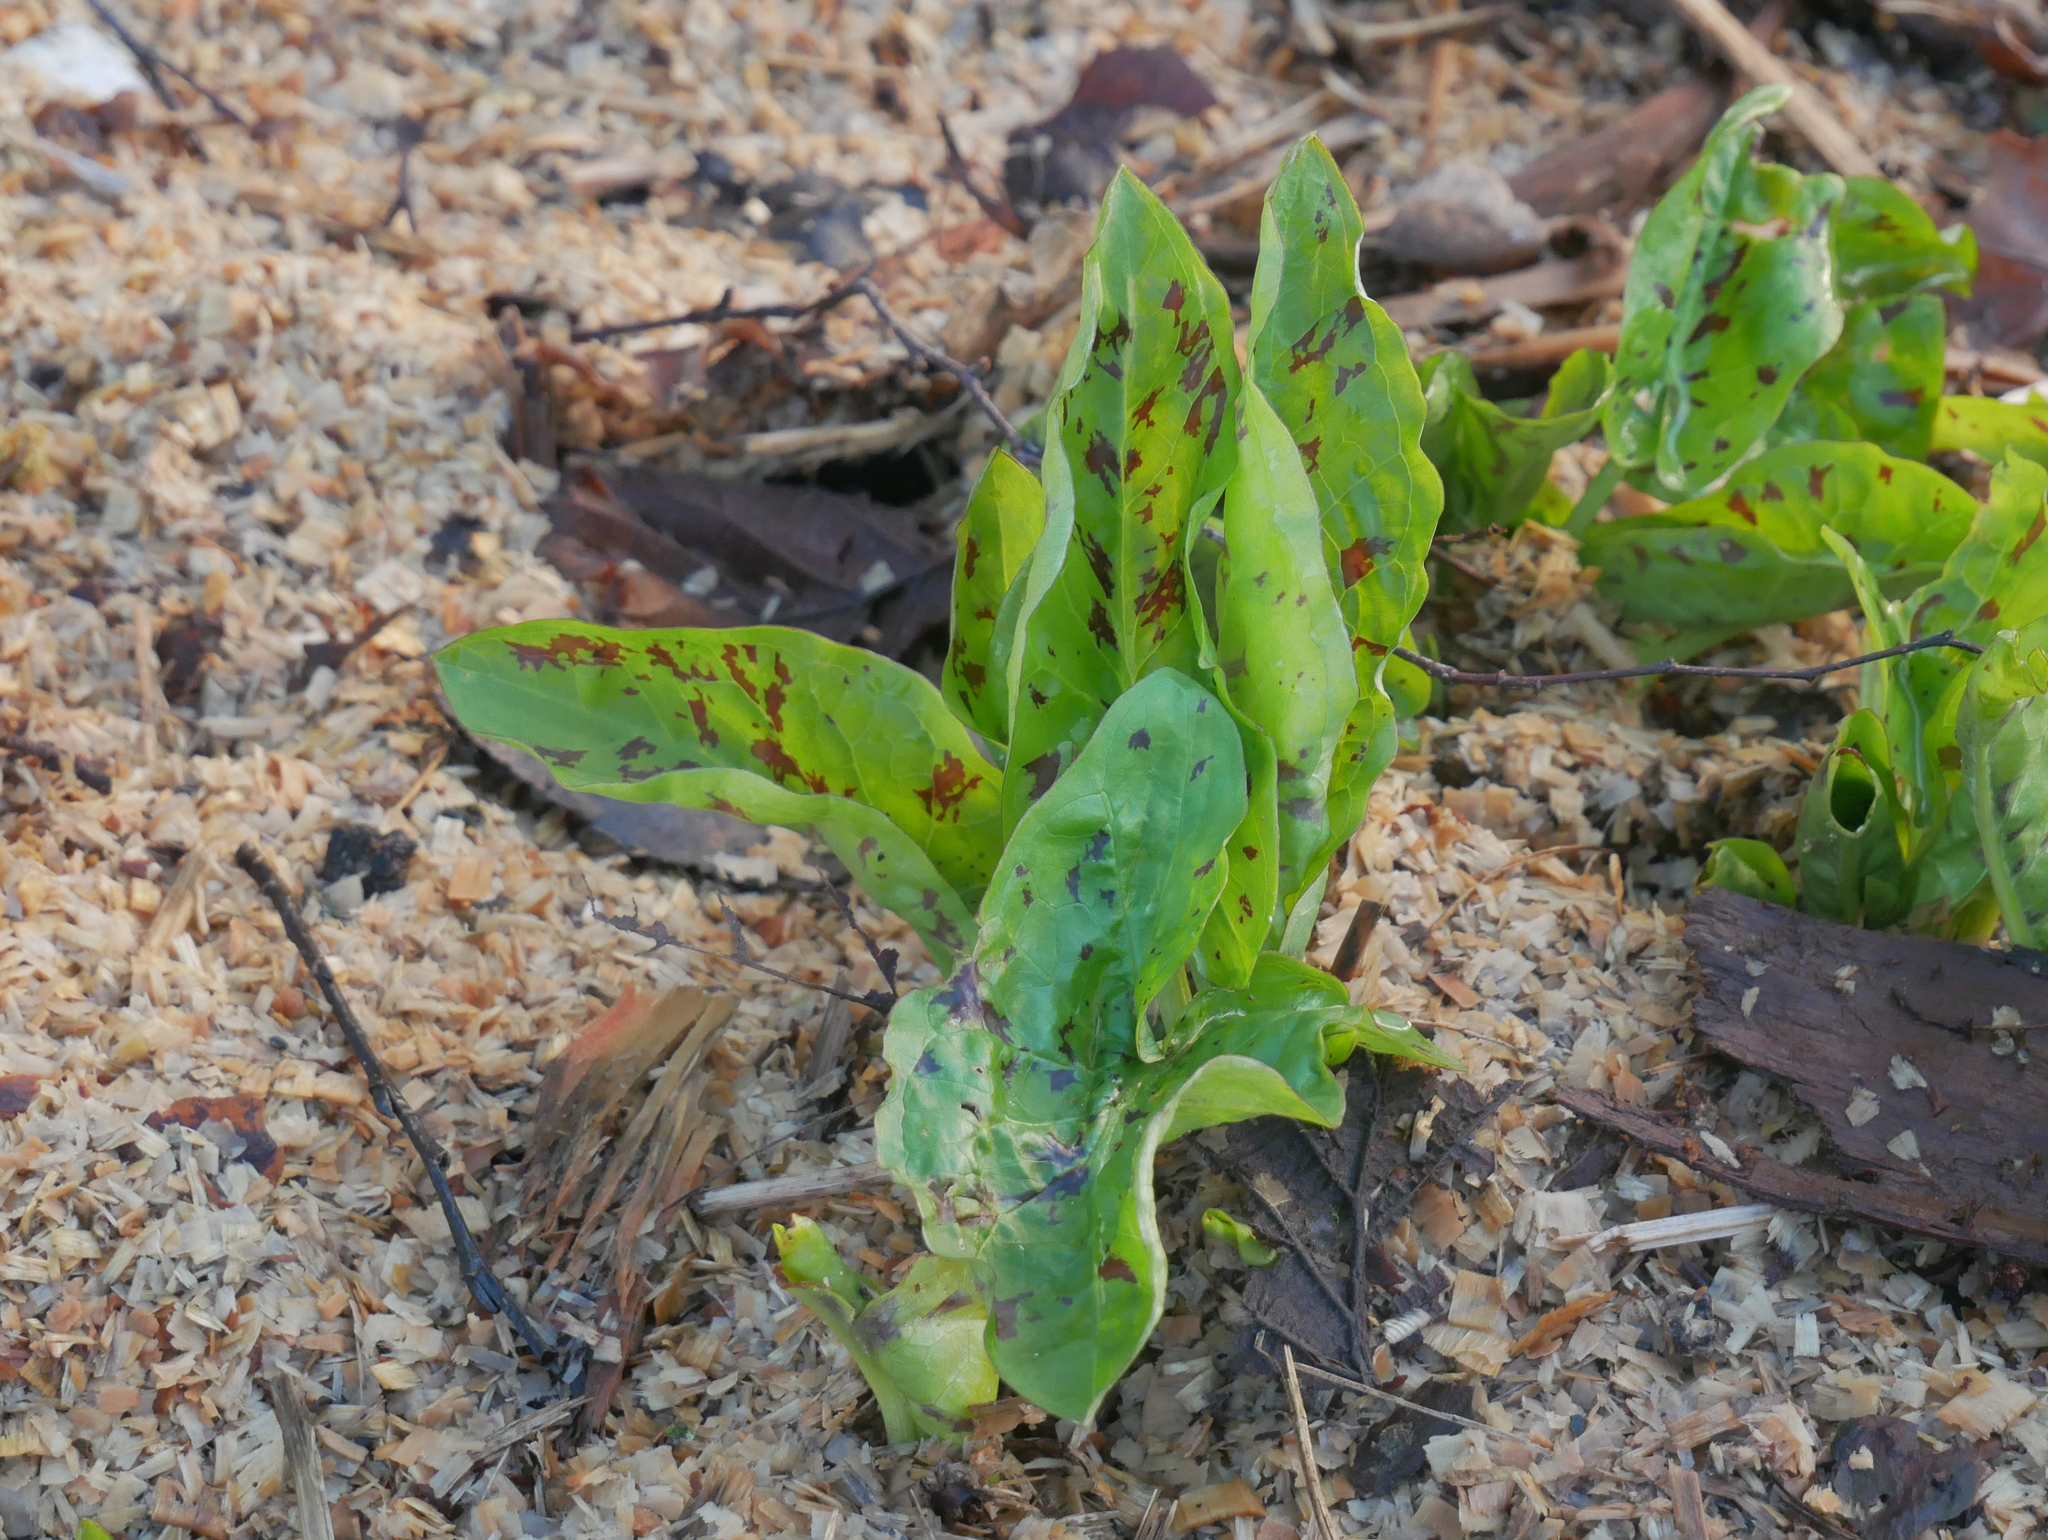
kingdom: Plantae
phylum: Tracheophyta
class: Liliopsida
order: Alismatales
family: Araceae
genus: Arum
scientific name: Arum maculatum
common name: Lords-and-ladies
